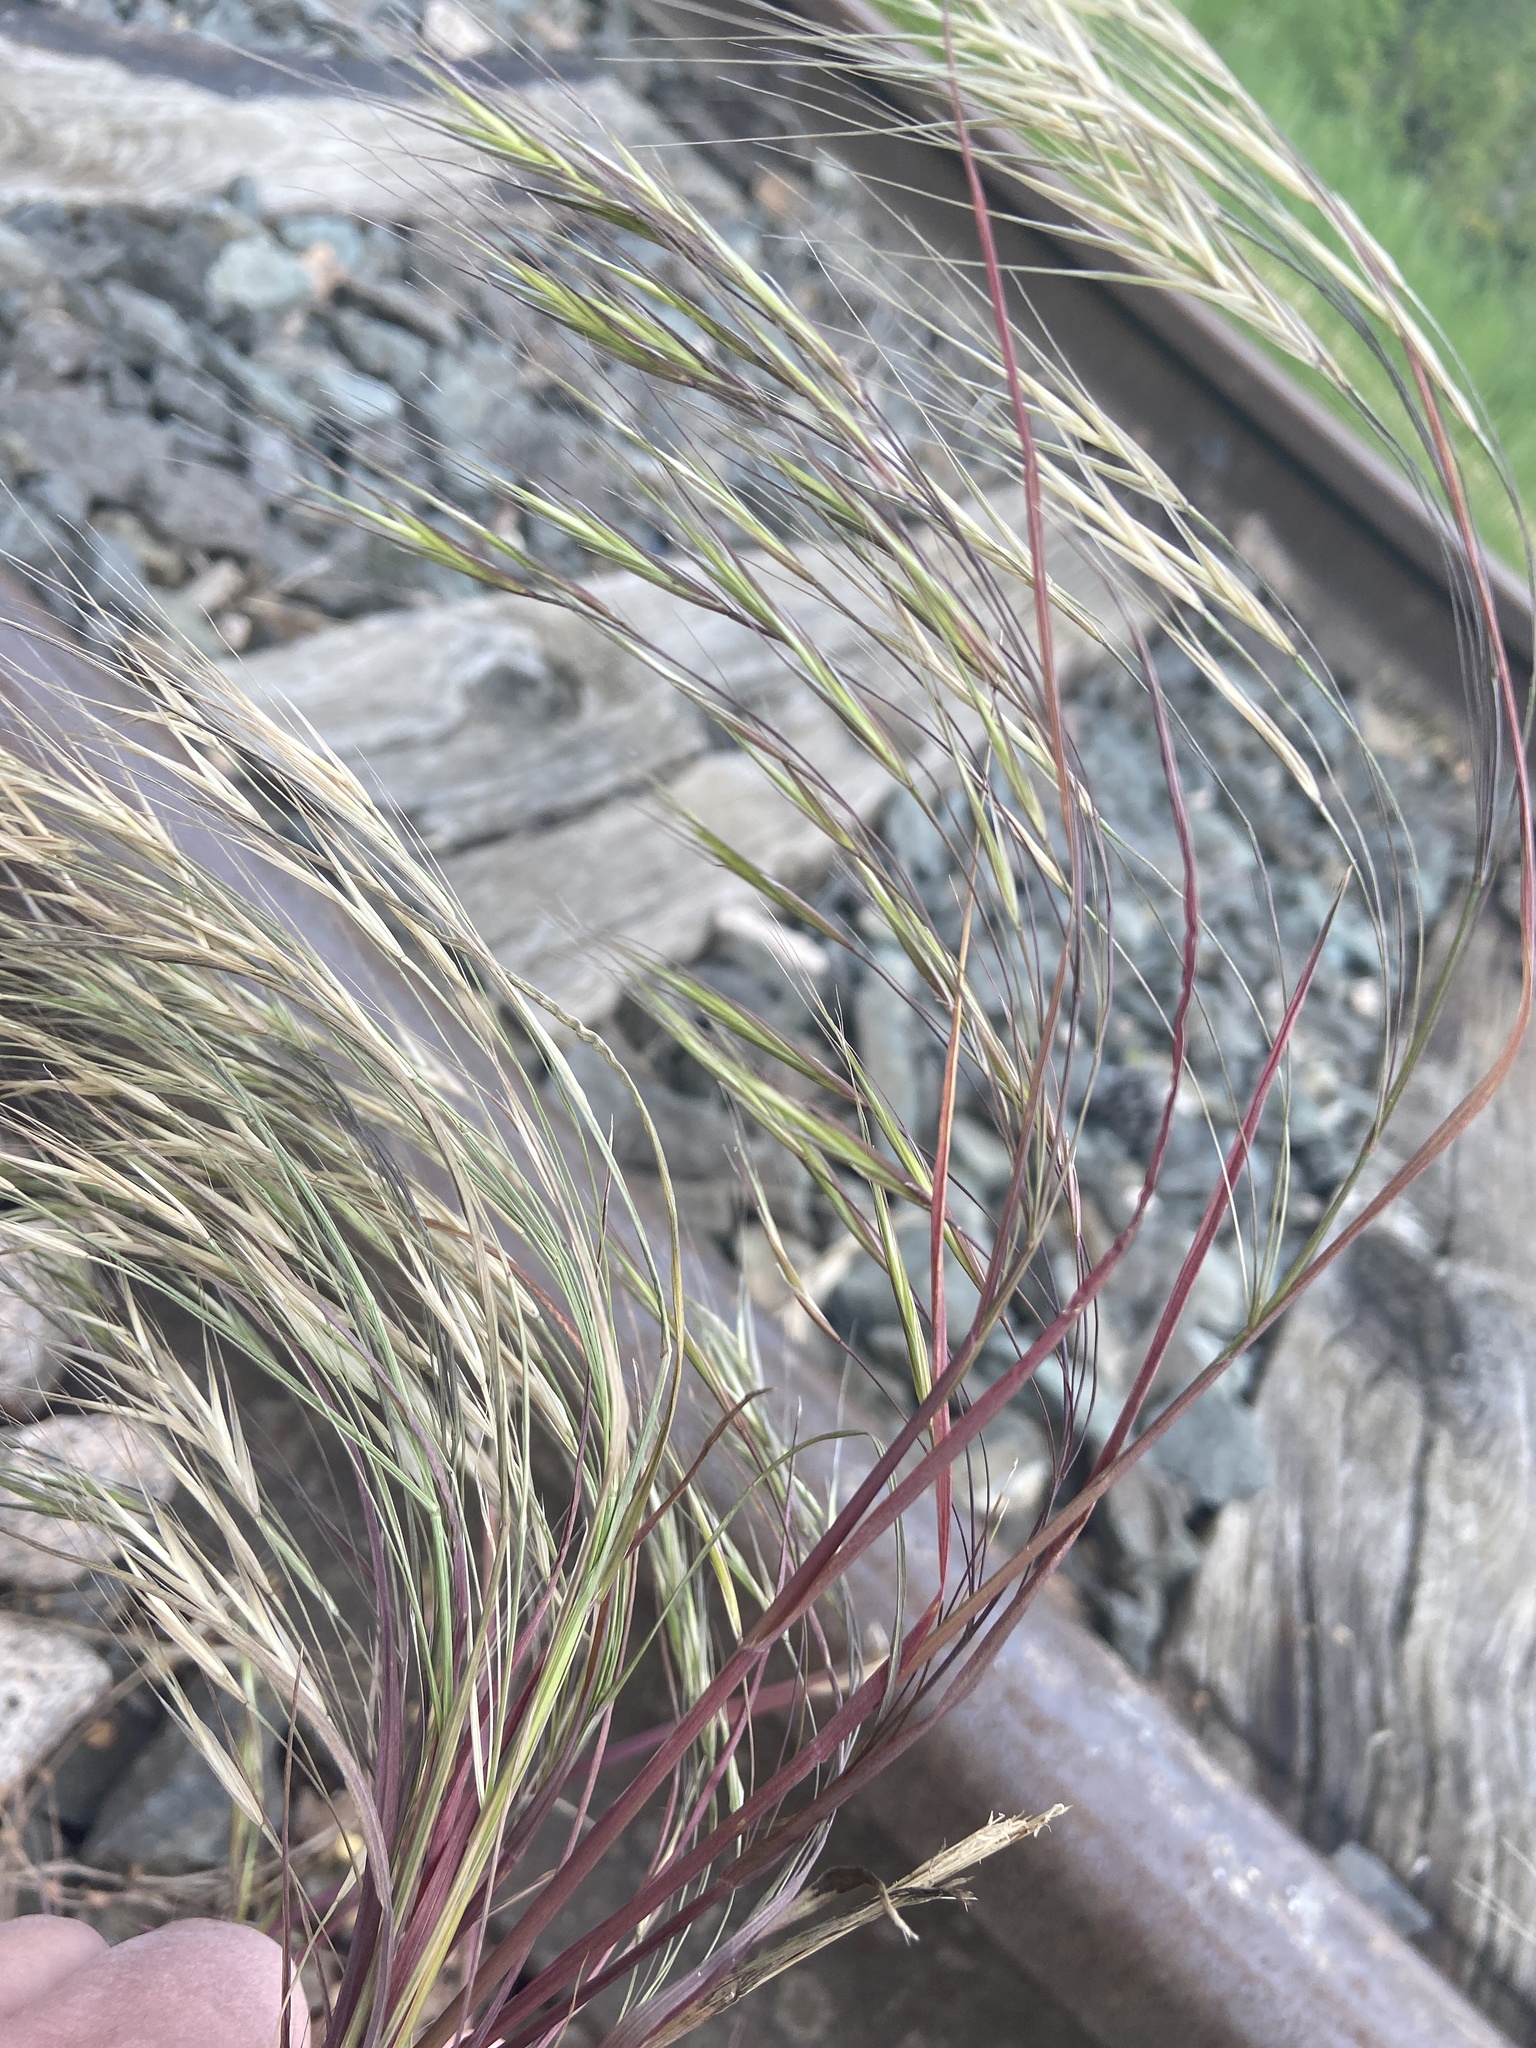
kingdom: Plantae
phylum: Tracheophyta
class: Liliopsida
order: Poales
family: Poaceae
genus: Bromus
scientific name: Bromus sterilis
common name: Poverty brome
